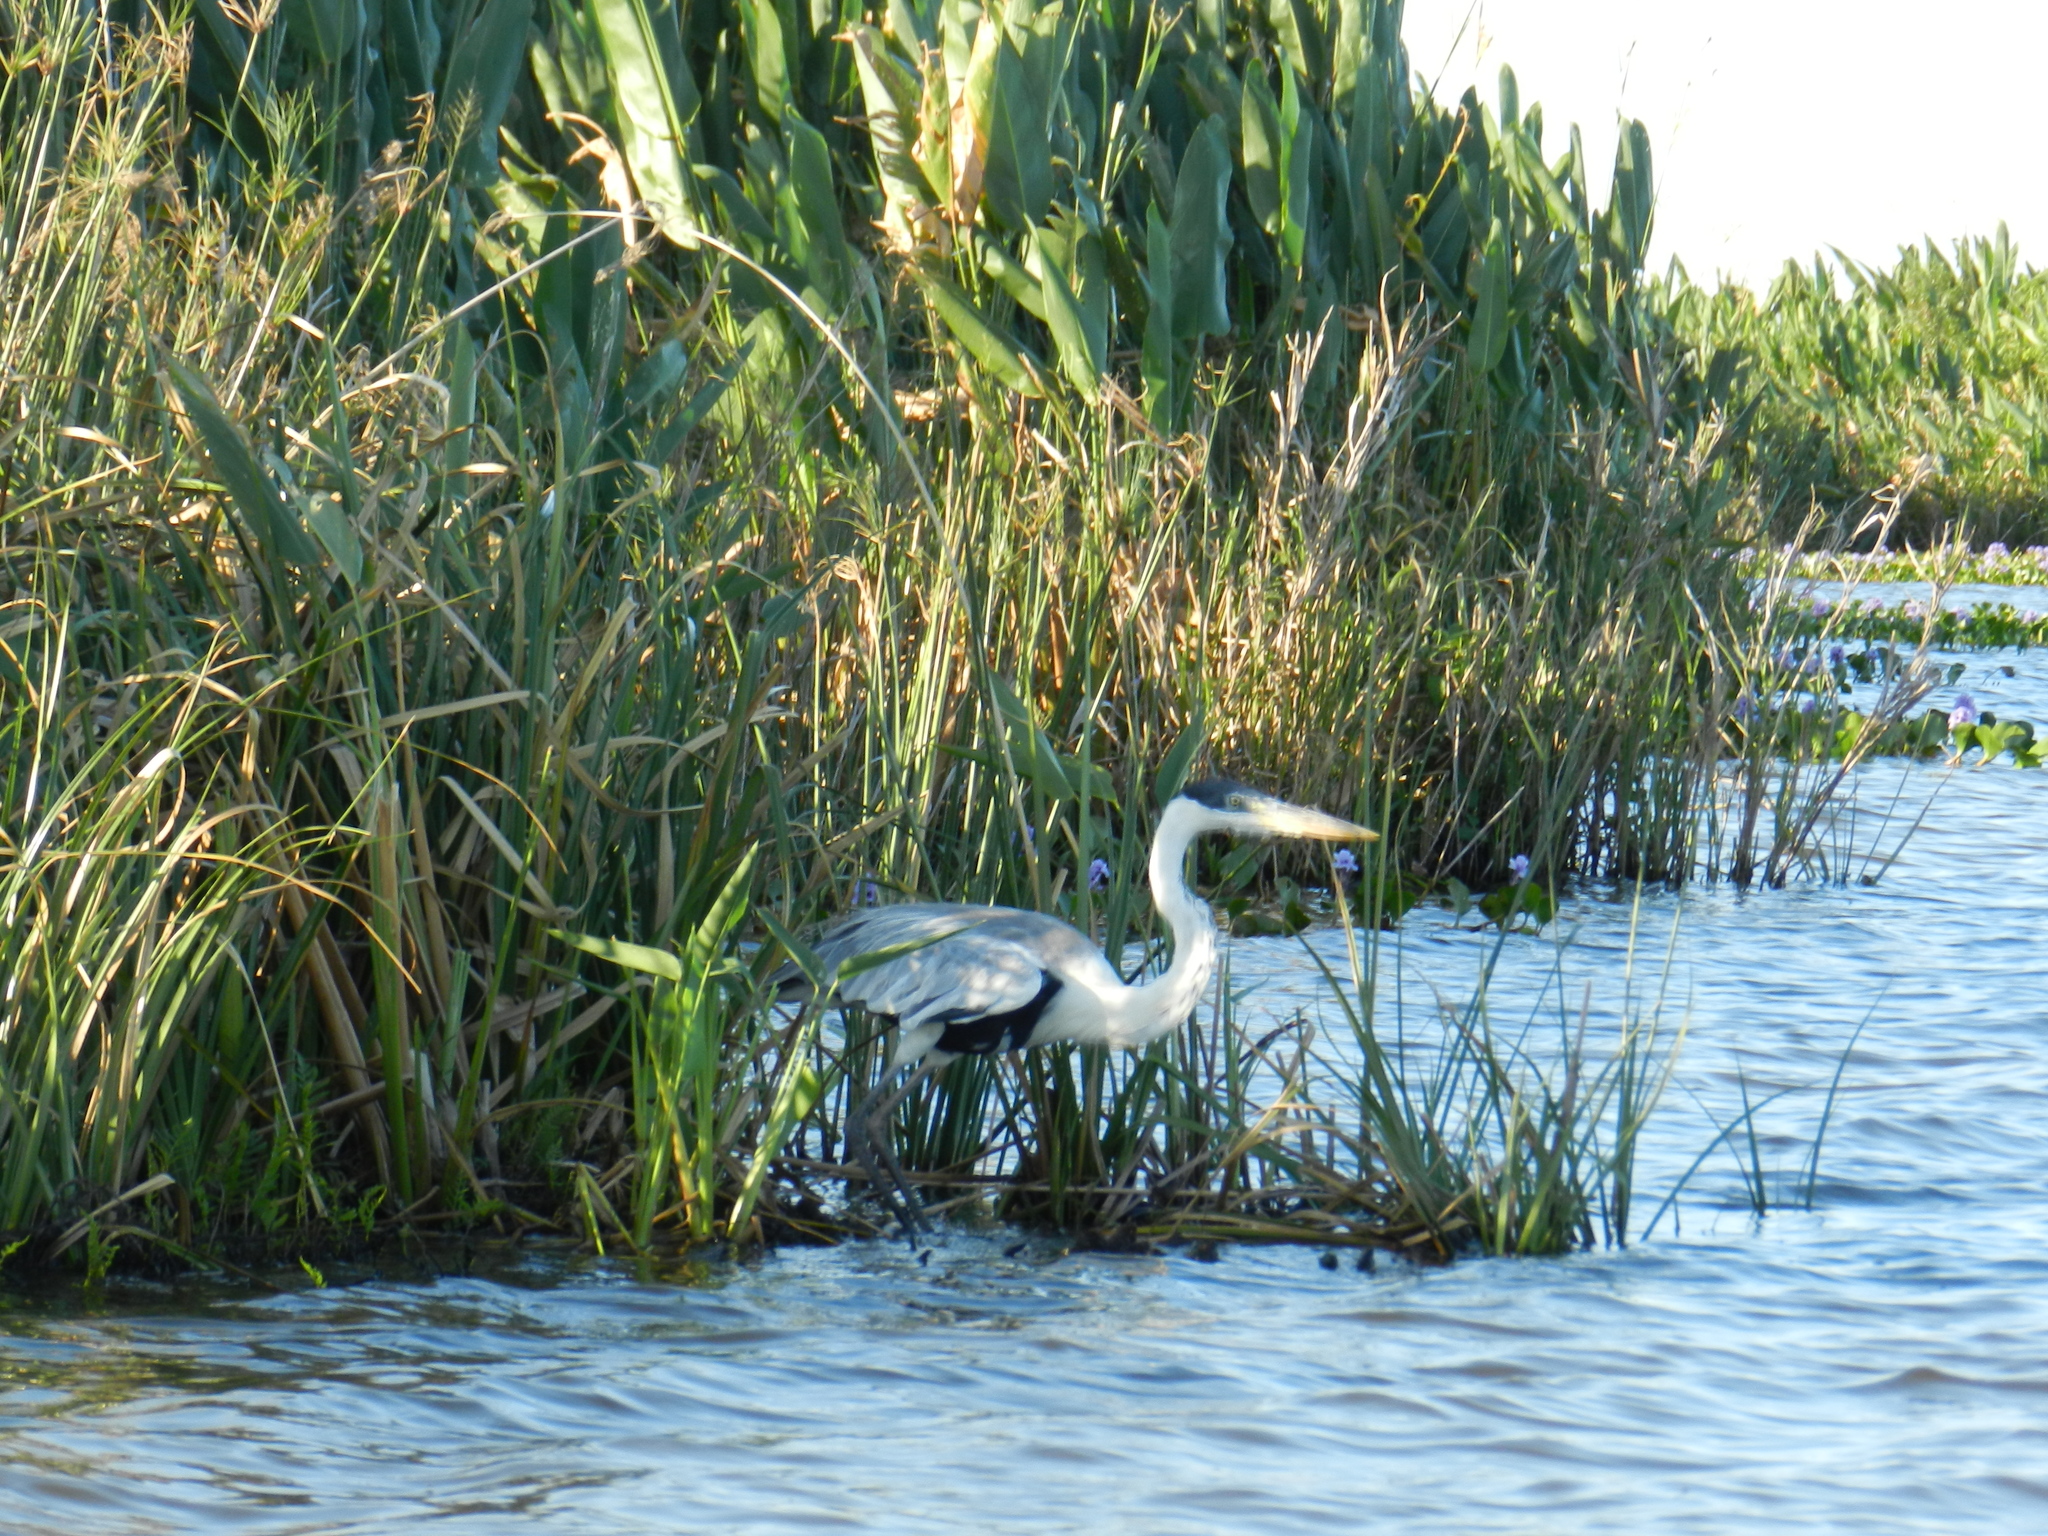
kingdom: Animalia
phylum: Chordata
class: Aves
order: Pelecaniformes
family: Ardeidae
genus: Ardea
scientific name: Ardea cocoi
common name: Cocoi heron
